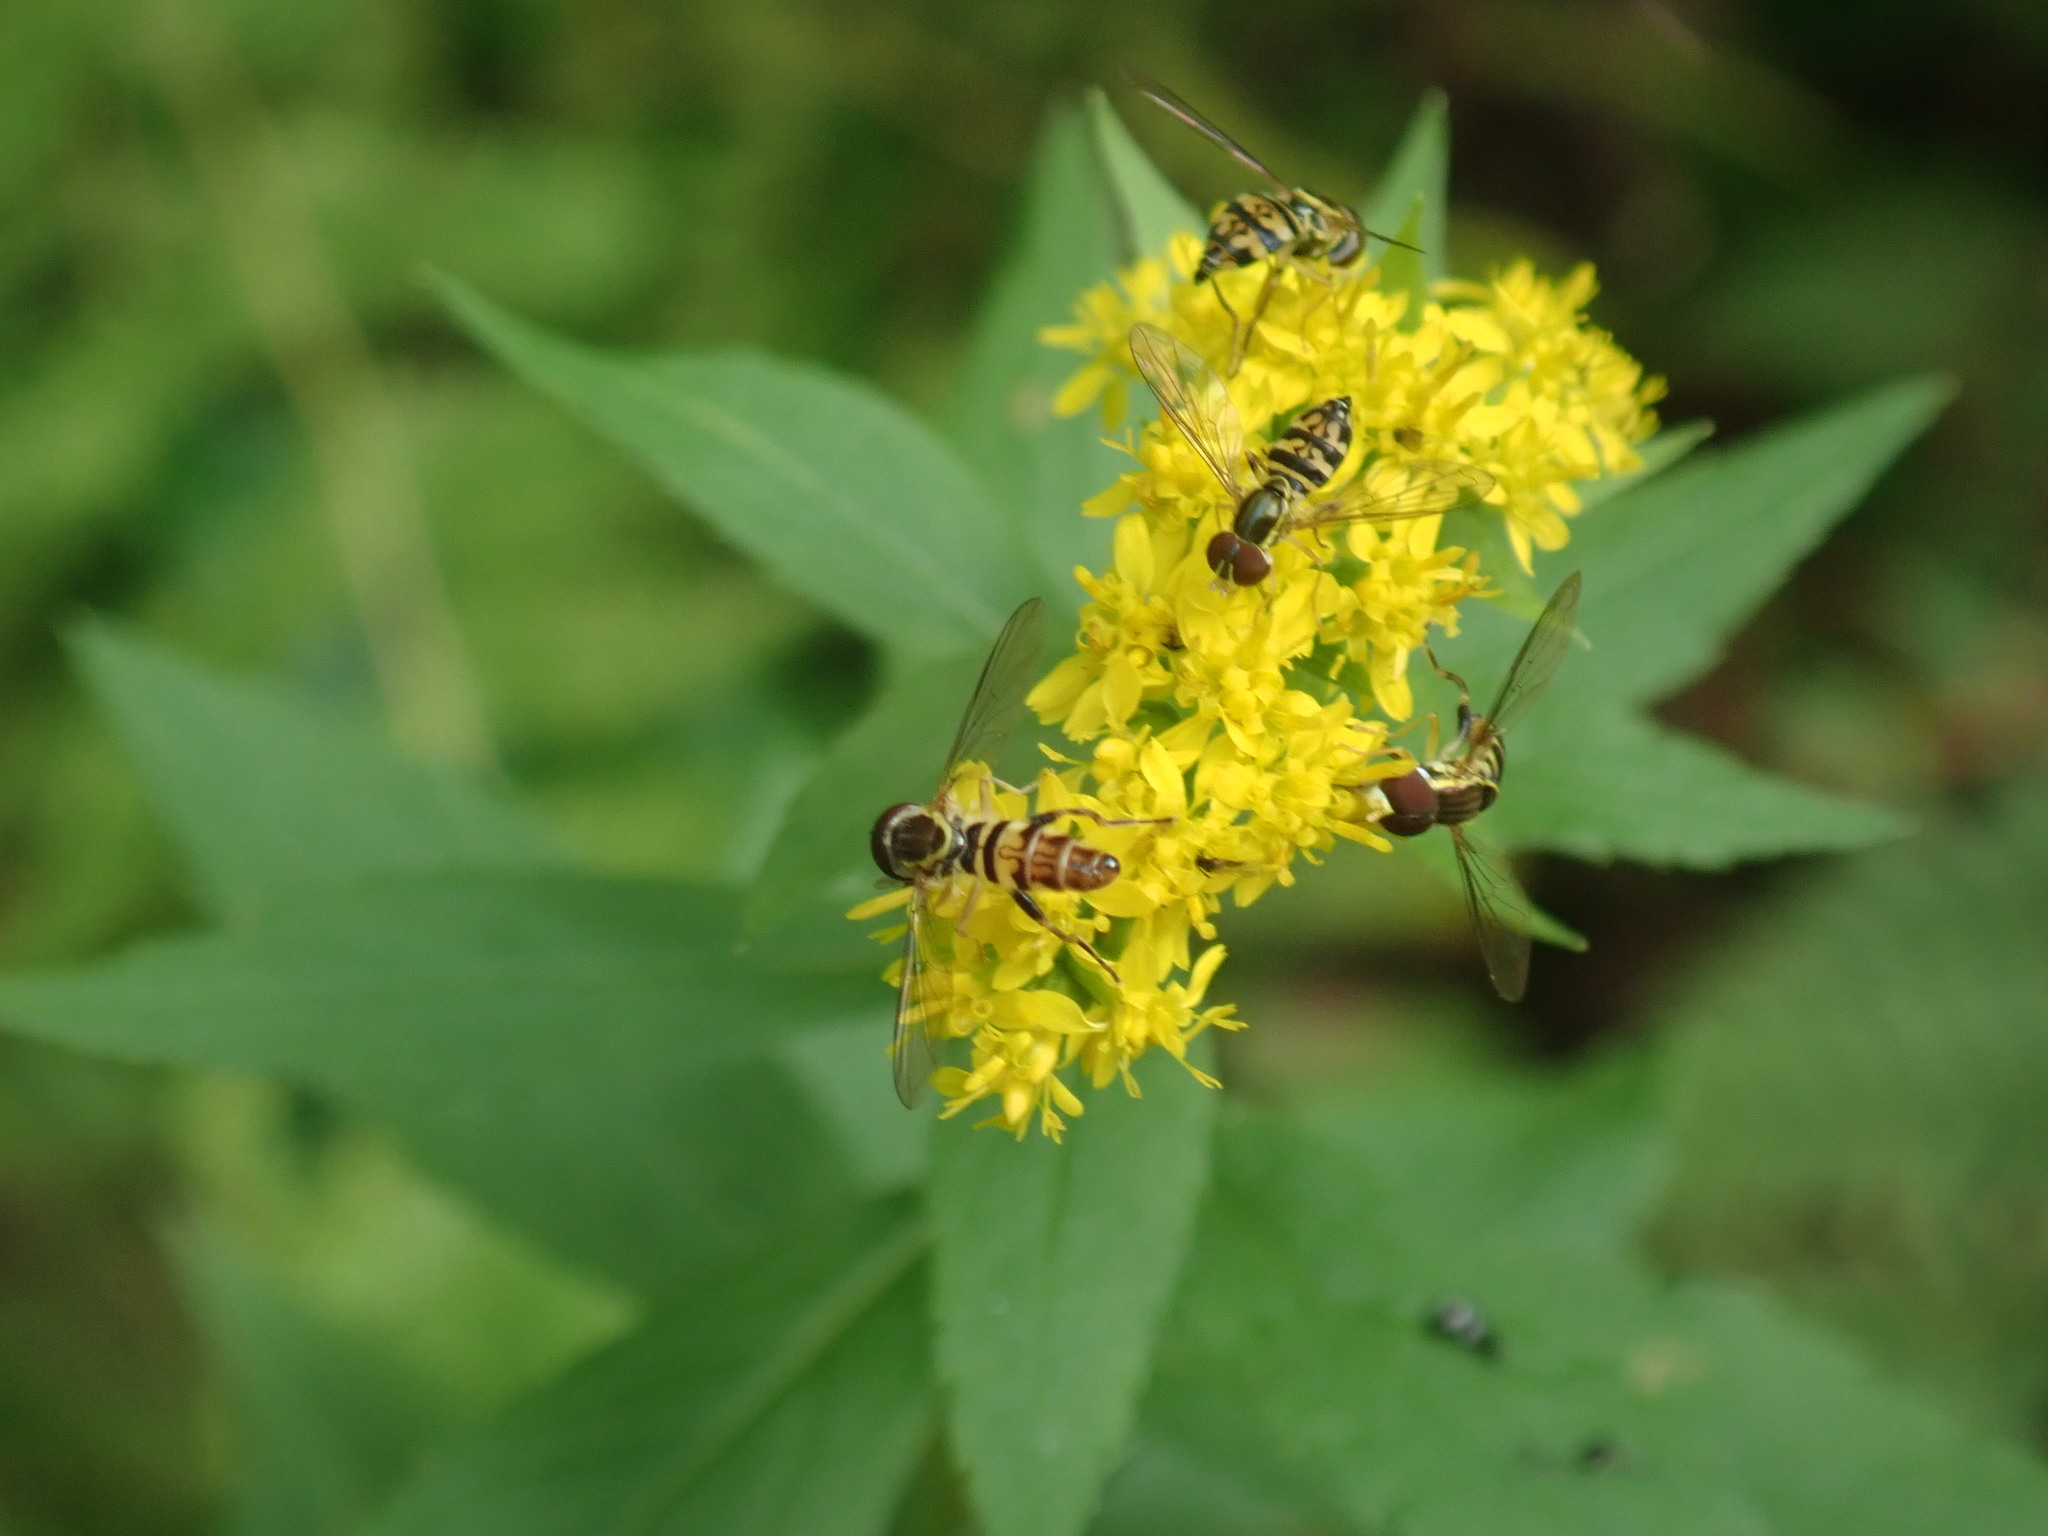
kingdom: Animalia
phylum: Arthropoda
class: Insecta
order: Diptera
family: Syrphidae
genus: Toxomerus
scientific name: Toxomerus geminatus
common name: Eastern calligrapher
